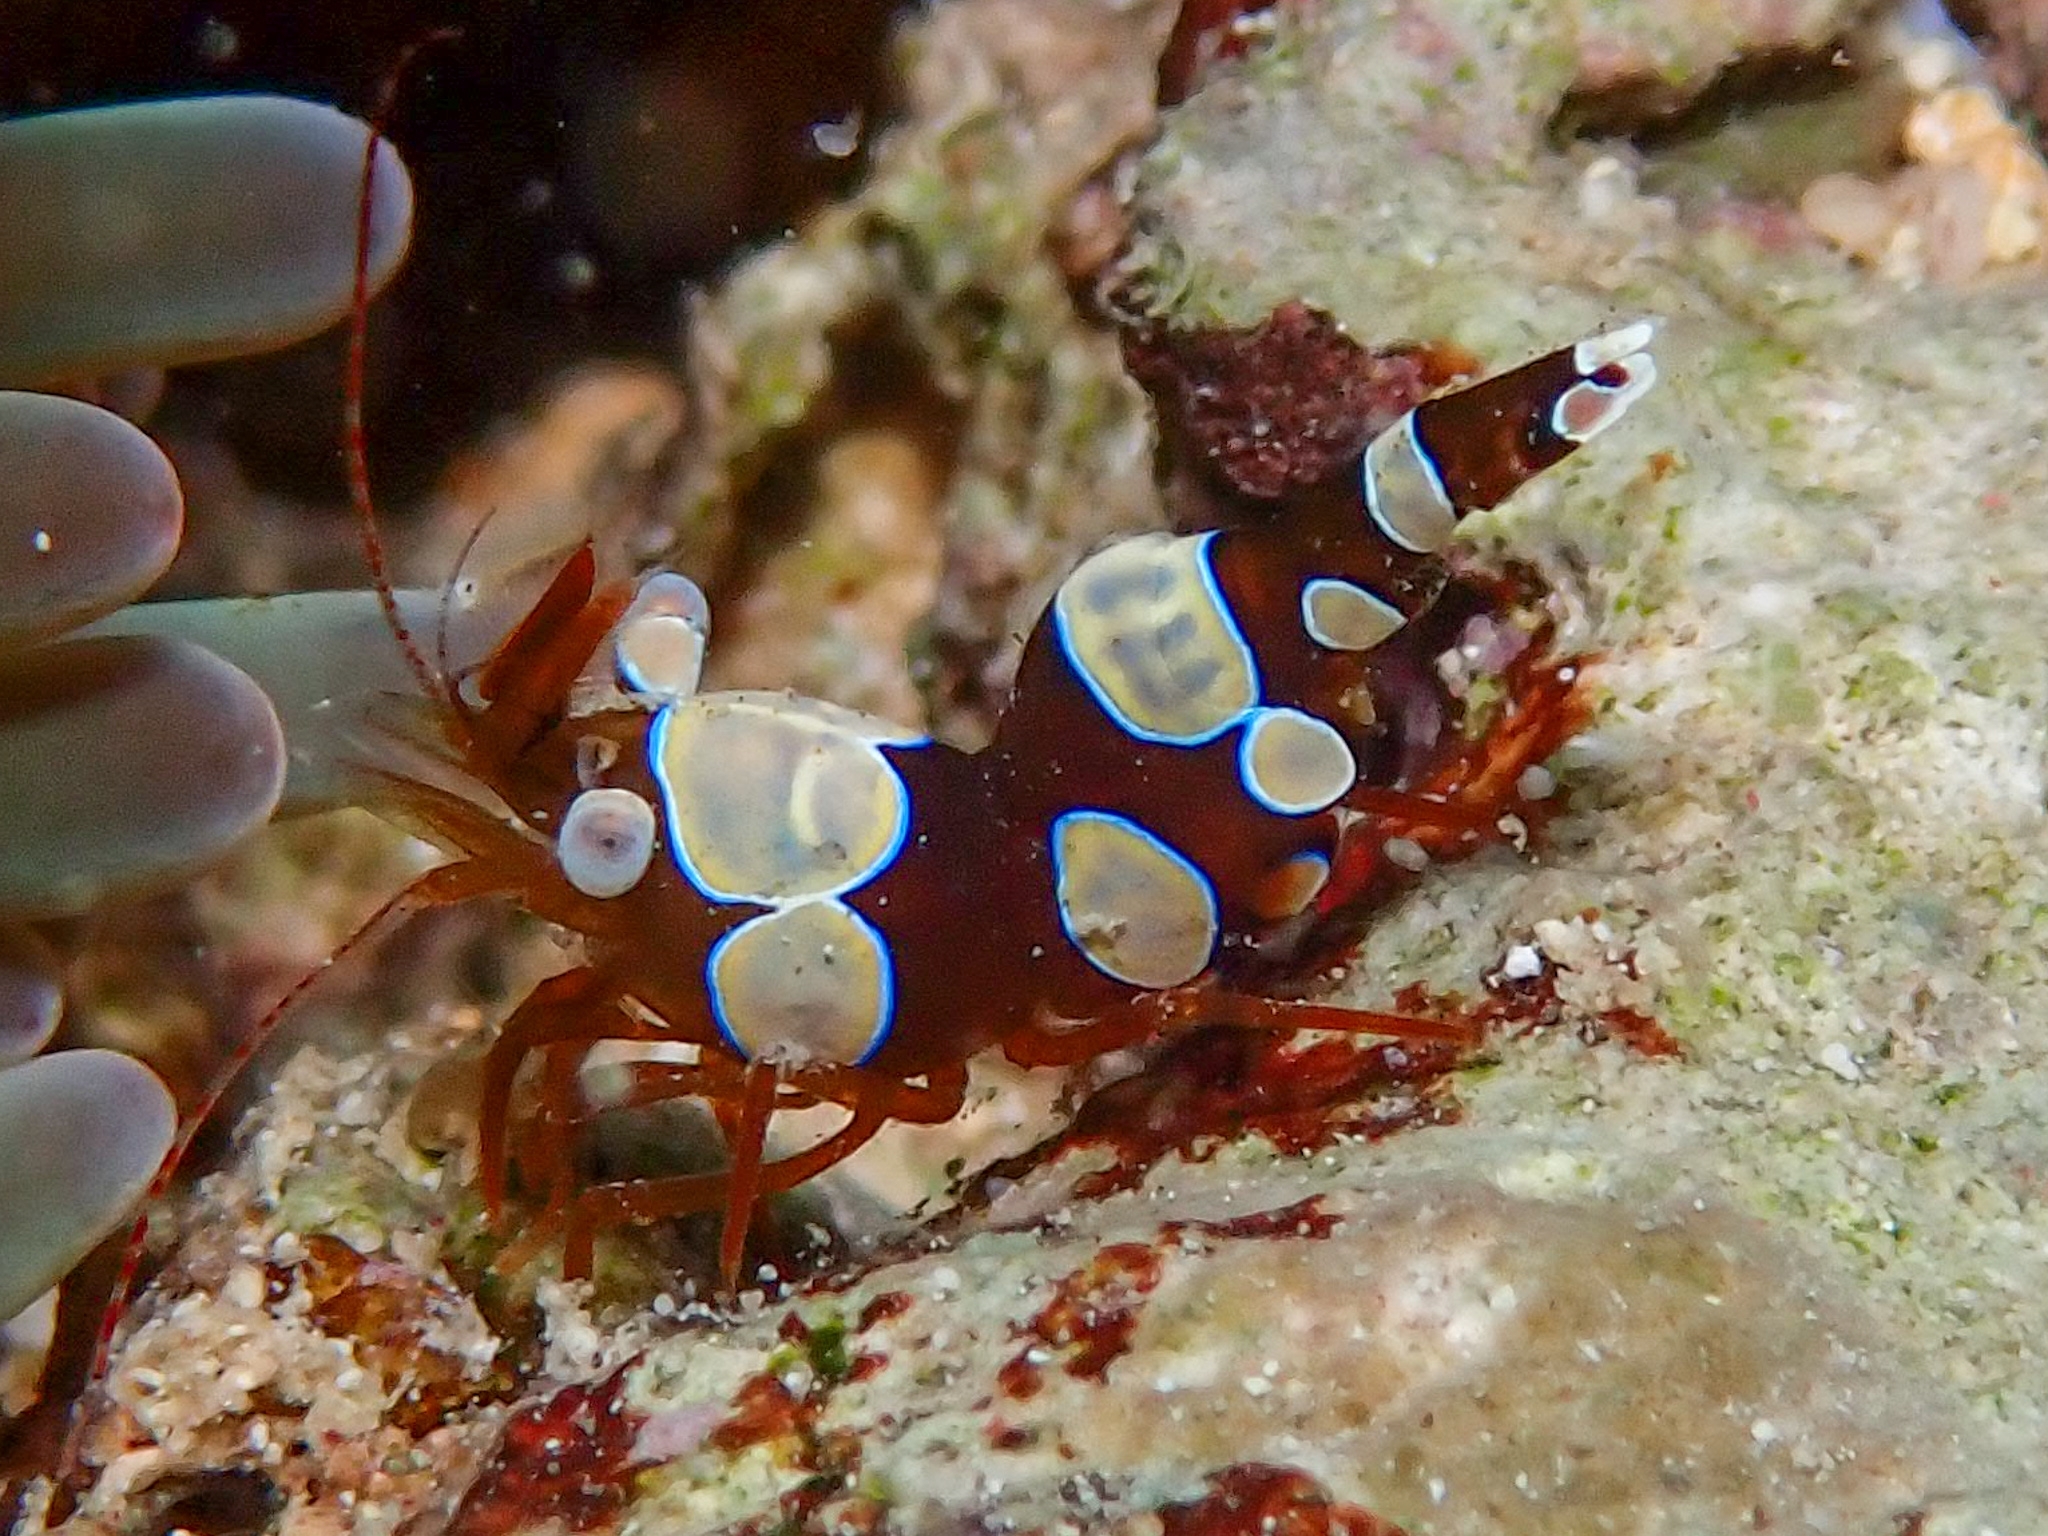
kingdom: Animalia
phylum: Arthropoda
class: Malacostraca
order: Decapoda
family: Thoridae
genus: Thor
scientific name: Thor dicaprio
